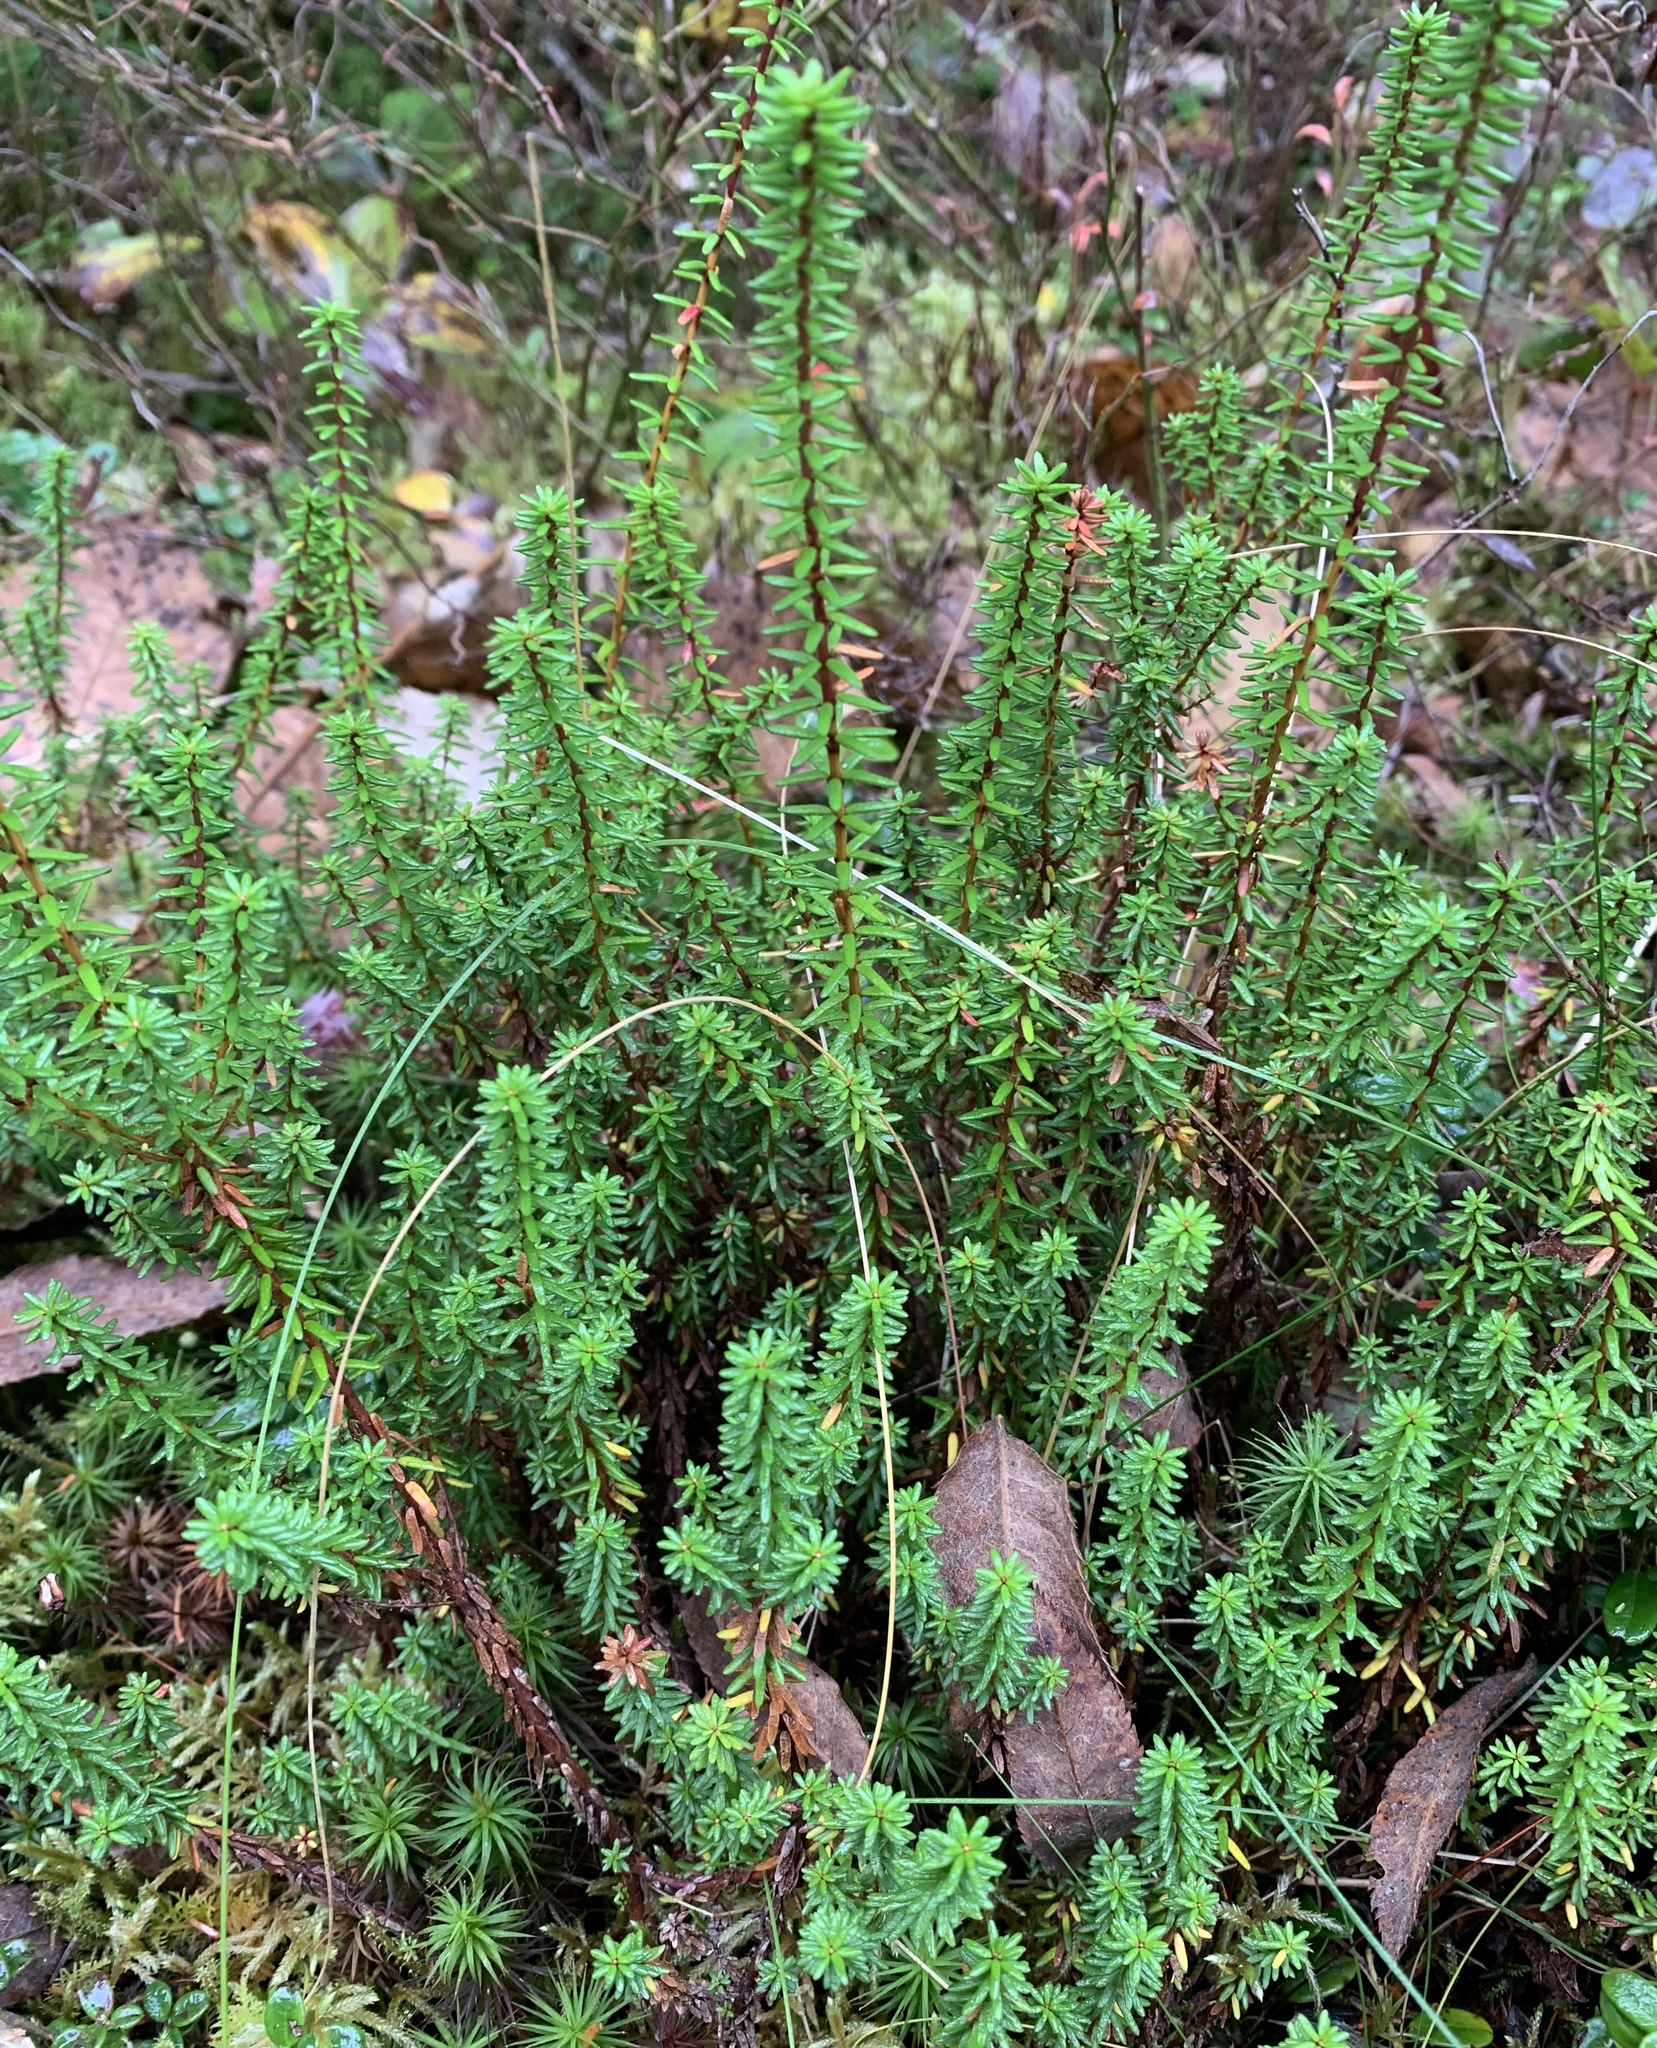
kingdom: Plantae
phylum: Tracheophyta
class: Magnoliopsida
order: Ericales
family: Ericaceae
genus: Empetrum
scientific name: Empetrum nigrum
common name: Black crowberry
